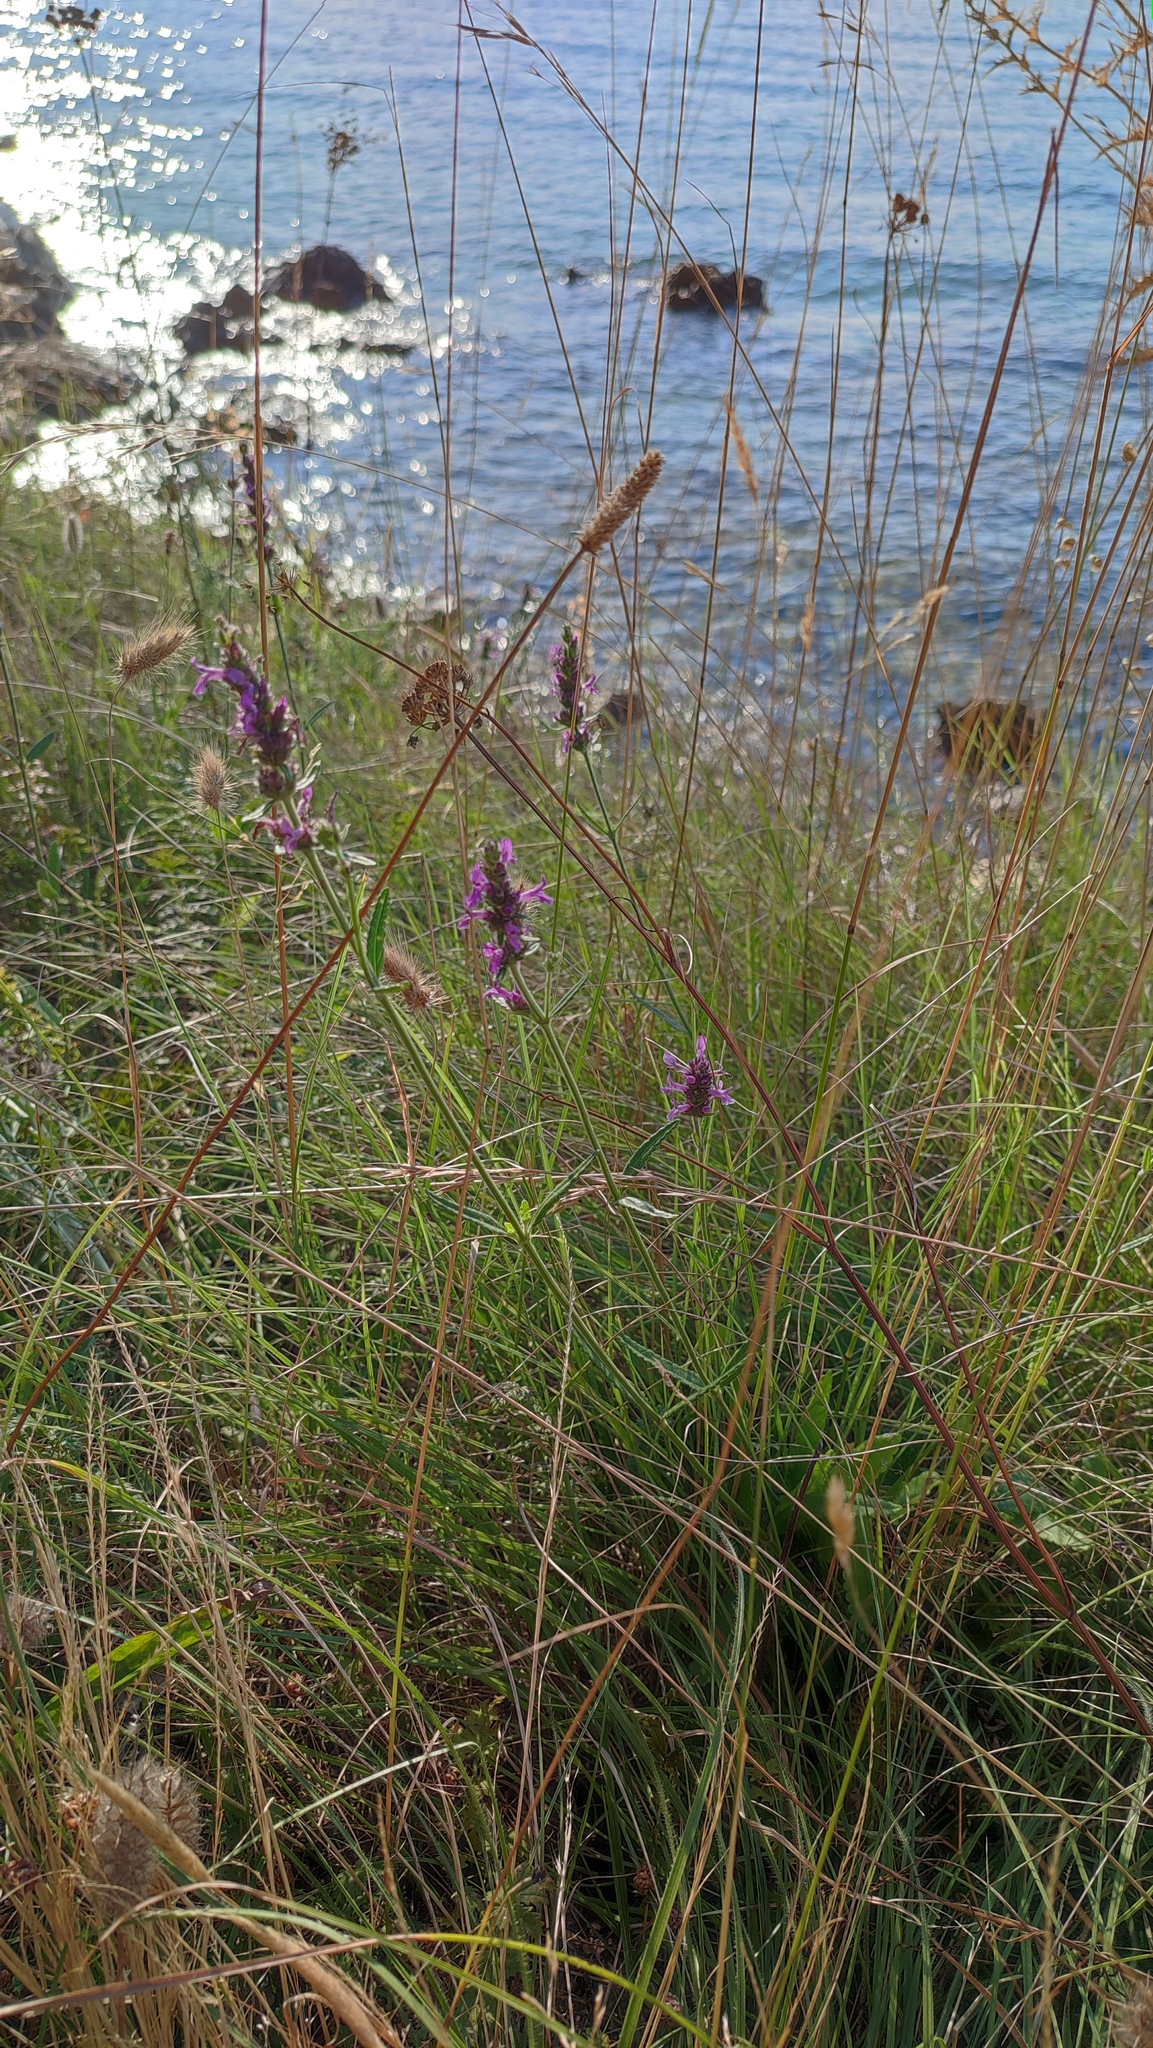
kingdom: Plantae
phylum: Tracheophyta
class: Magnoliopsida
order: Lamiales
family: Lamiaceae
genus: Betonica
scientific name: Betonica officinalis
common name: Bishop's-wort
